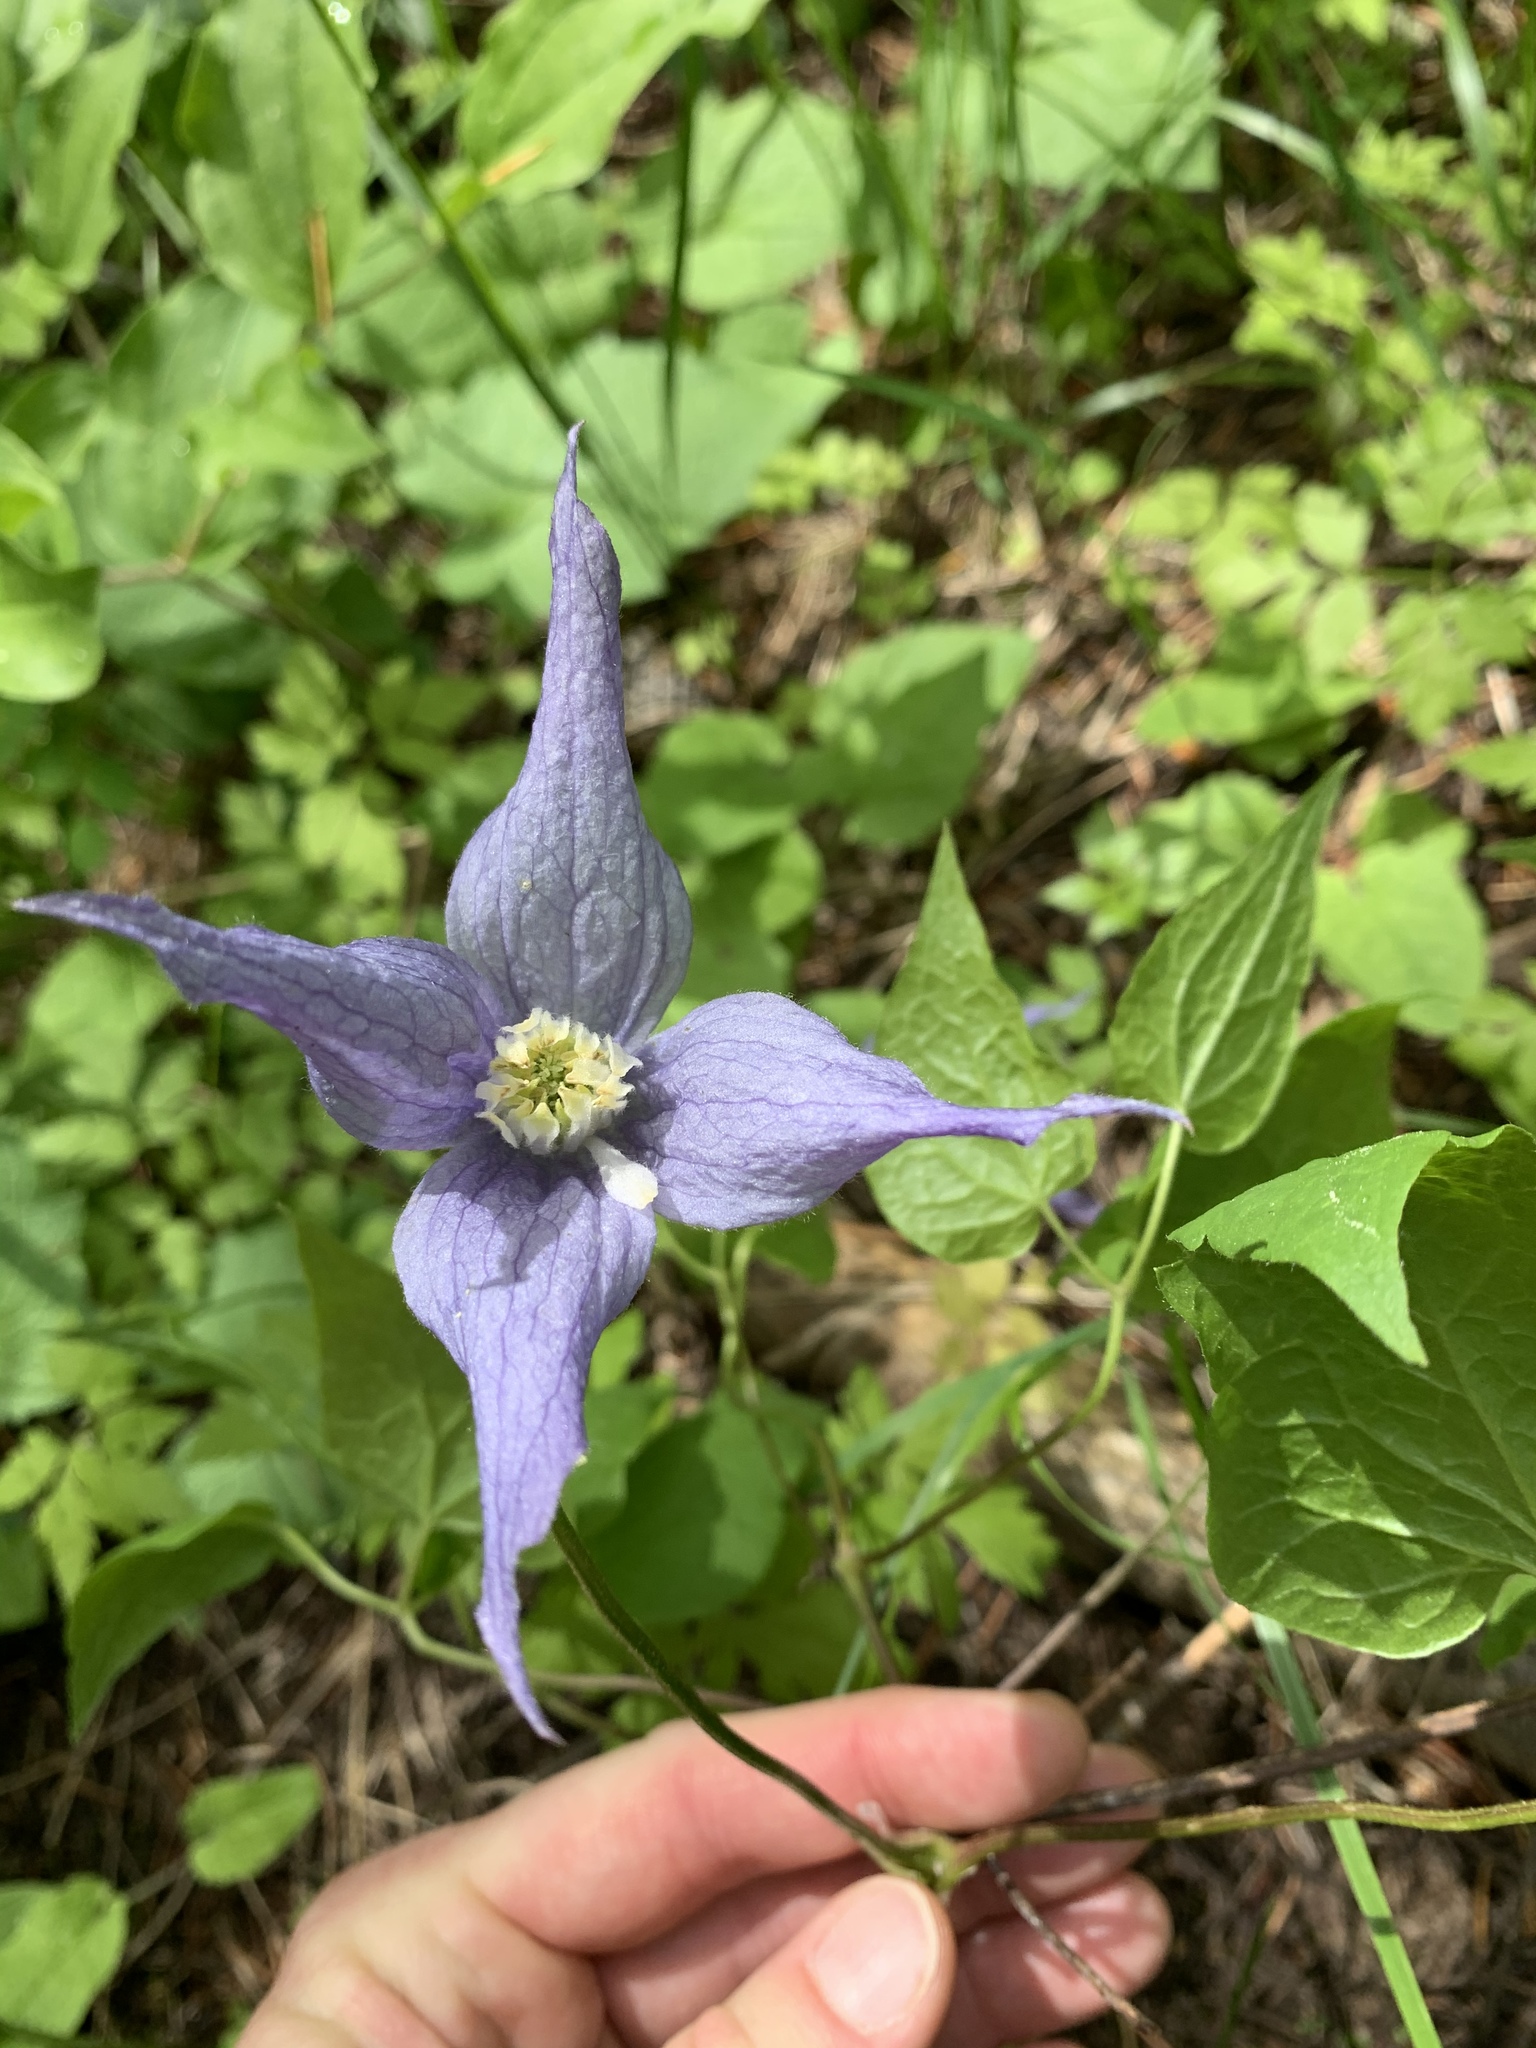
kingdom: Plantae
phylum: Tracheophyta
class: Magnoliopsida
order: Ranunculales
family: Ranunculaceae
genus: Clematis
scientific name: Clematis occidentalis
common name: Purple clematis
